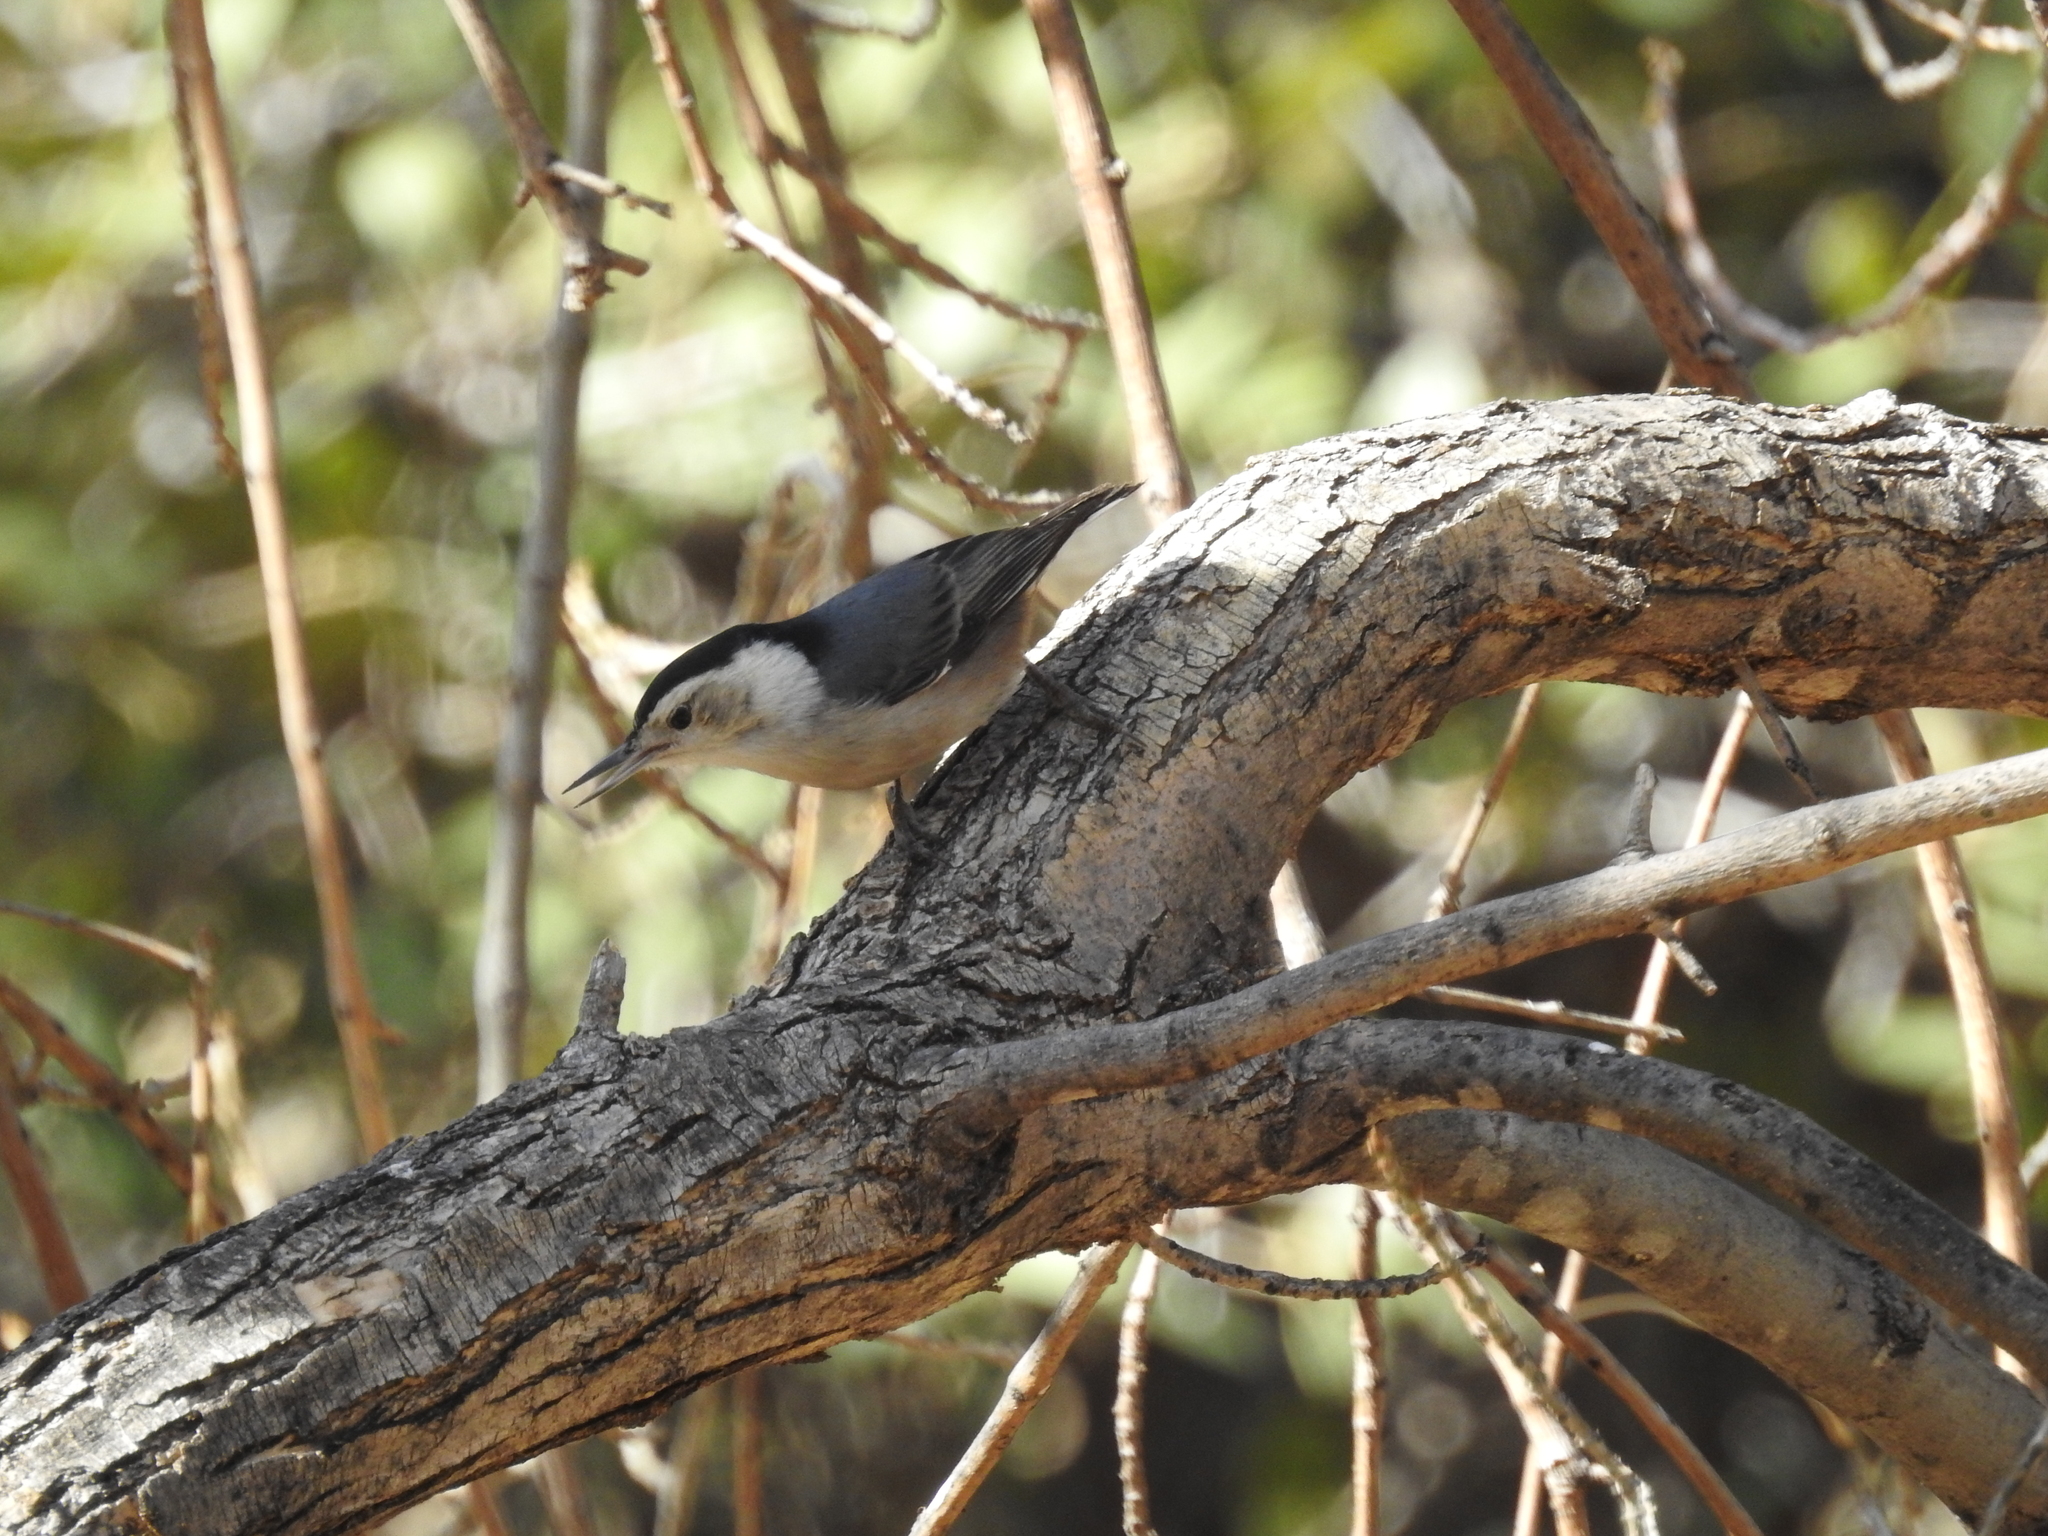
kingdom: Animalia
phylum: Chordata
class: Aves
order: Passeriformes
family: Sittidae
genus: Sitta
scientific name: Sitta carolinensis
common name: White-breasted nuthatch
